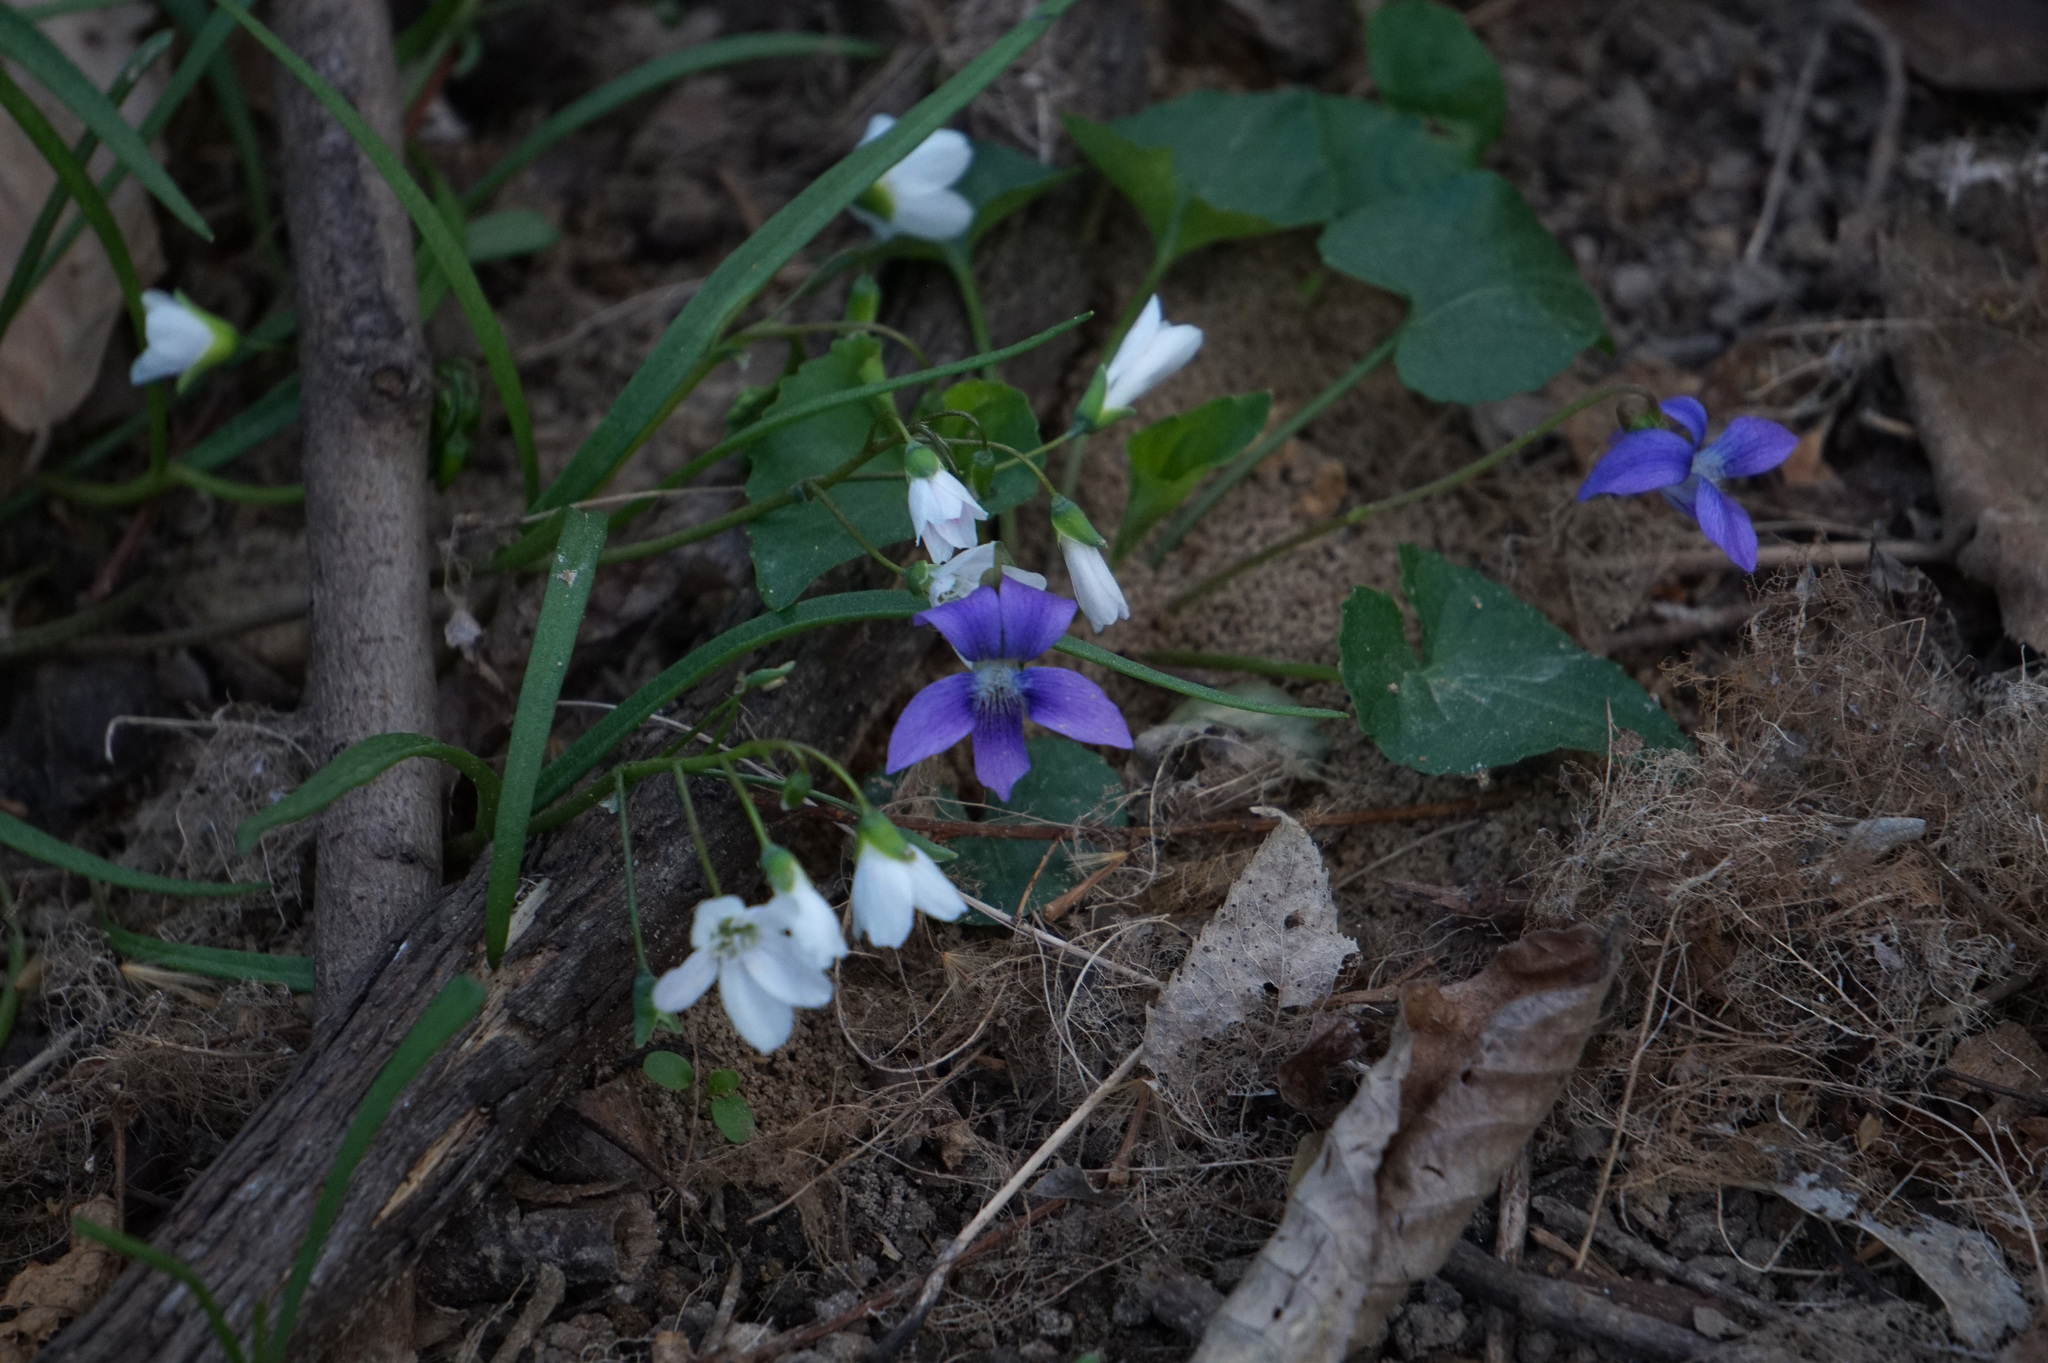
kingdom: Plantae
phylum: Tracheophyta
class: Magnoliopsida
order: Caryophyllales
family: Montiaceae
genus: Claytonia
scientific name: Claytonia virginica
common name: Virginia springbeauty
